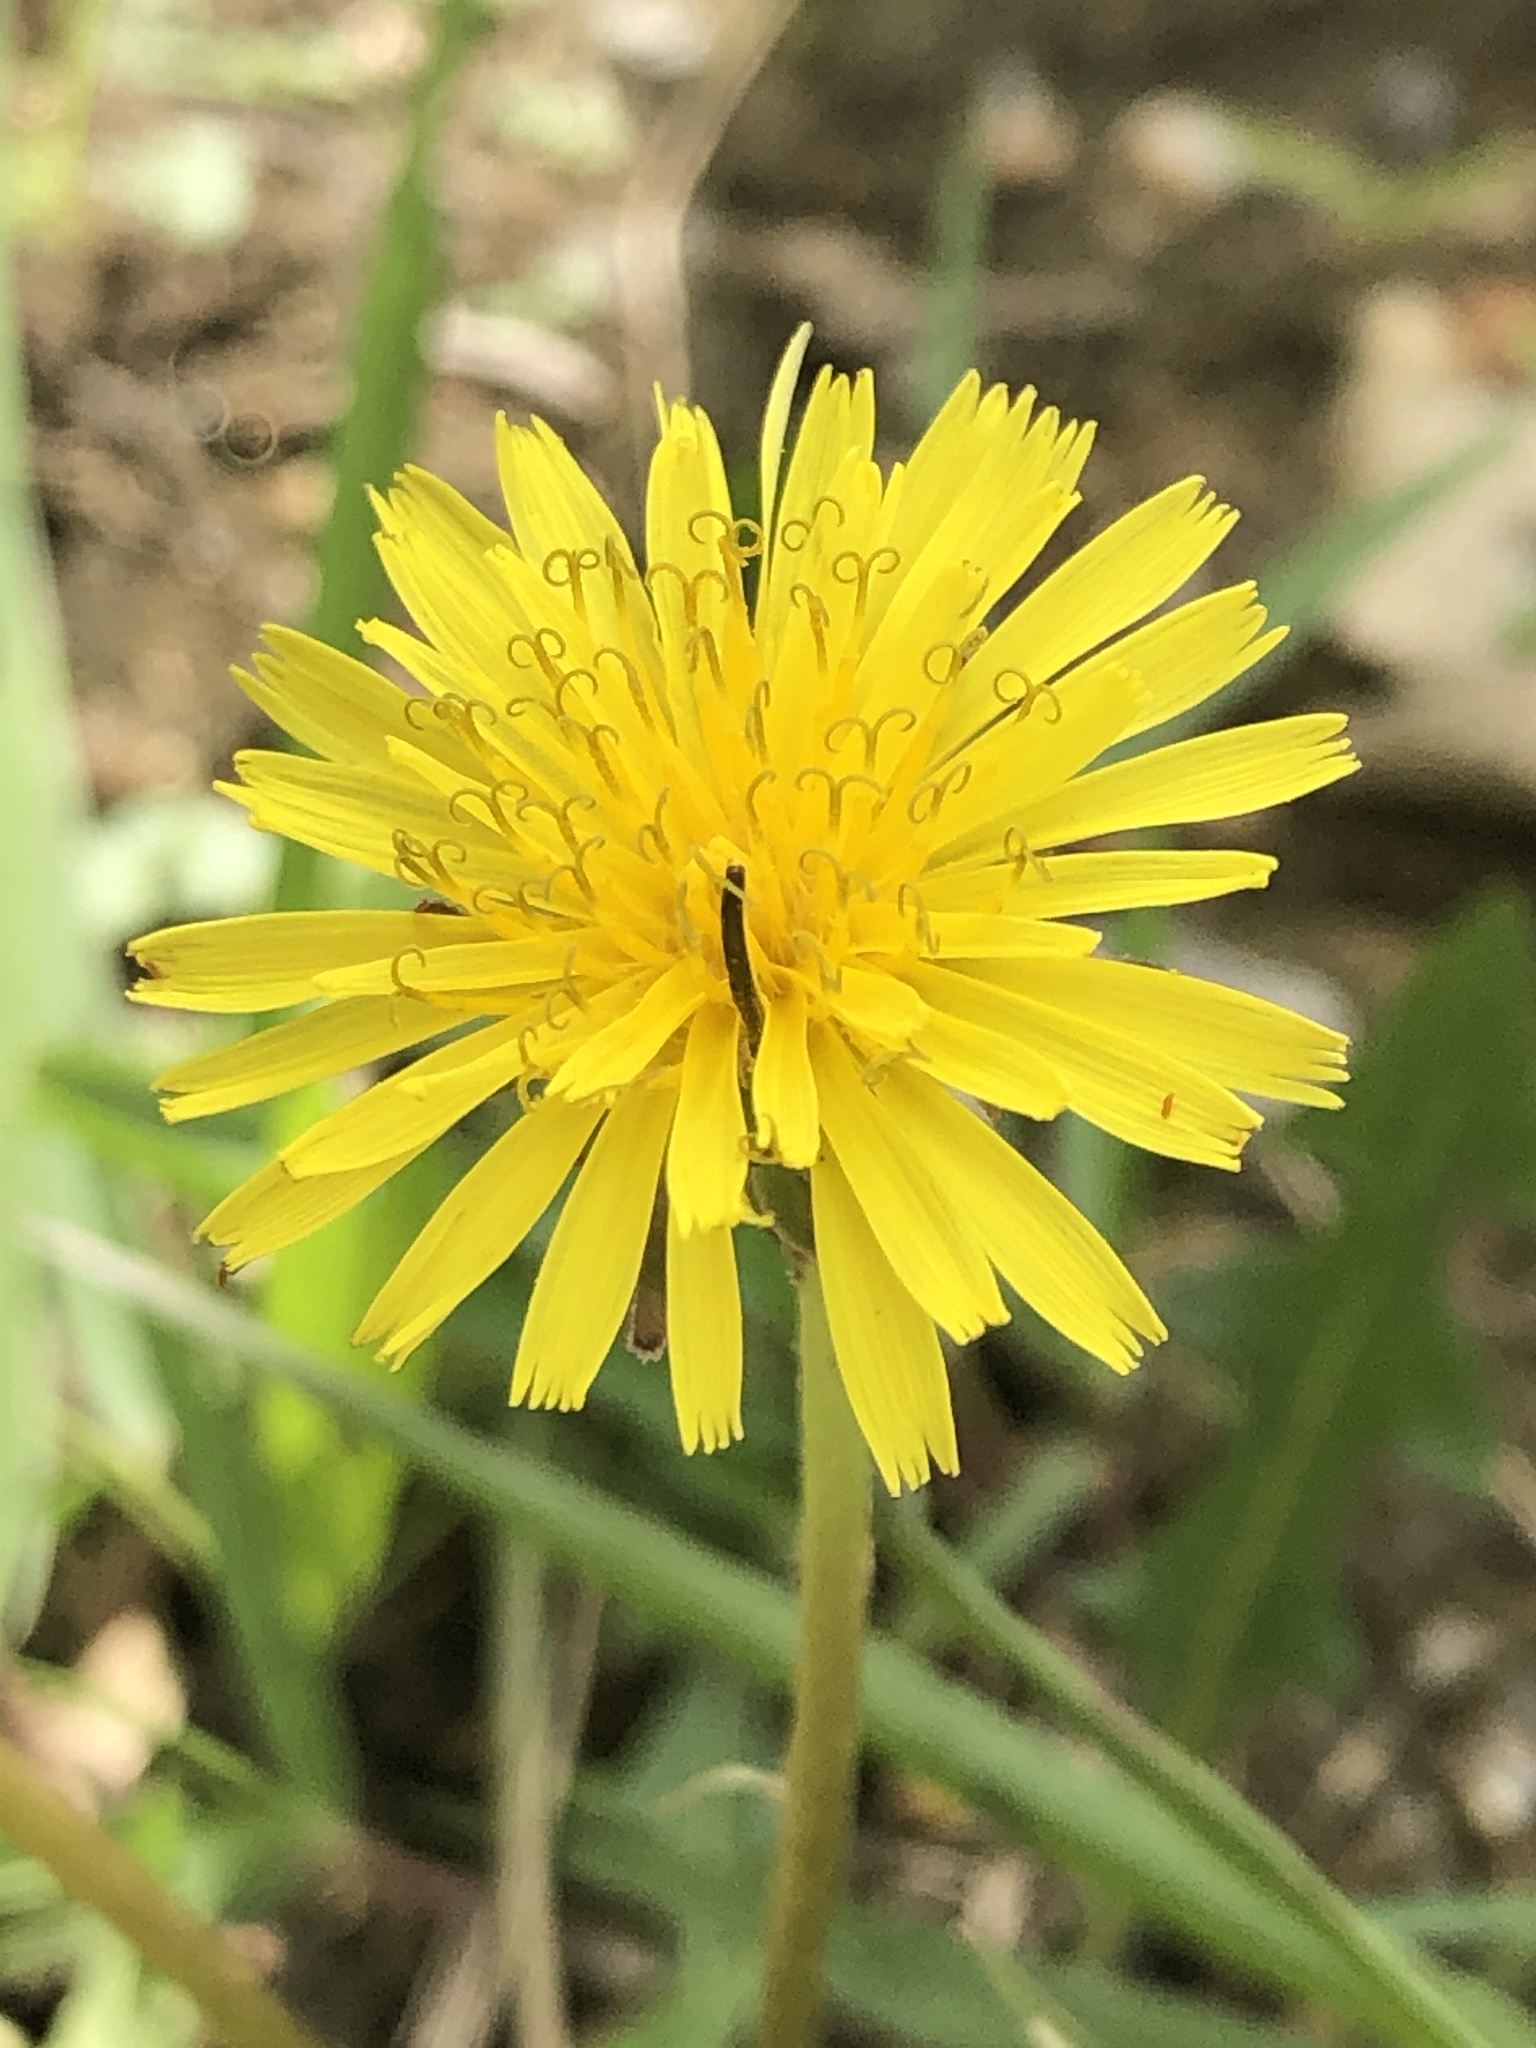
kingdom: Plantae
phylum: Tracheophyta
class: Magnoliopsida
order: Asterales
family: Asteraceae
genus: Taraxacum
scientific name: Taraxacum officinale
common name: Common dandelion
